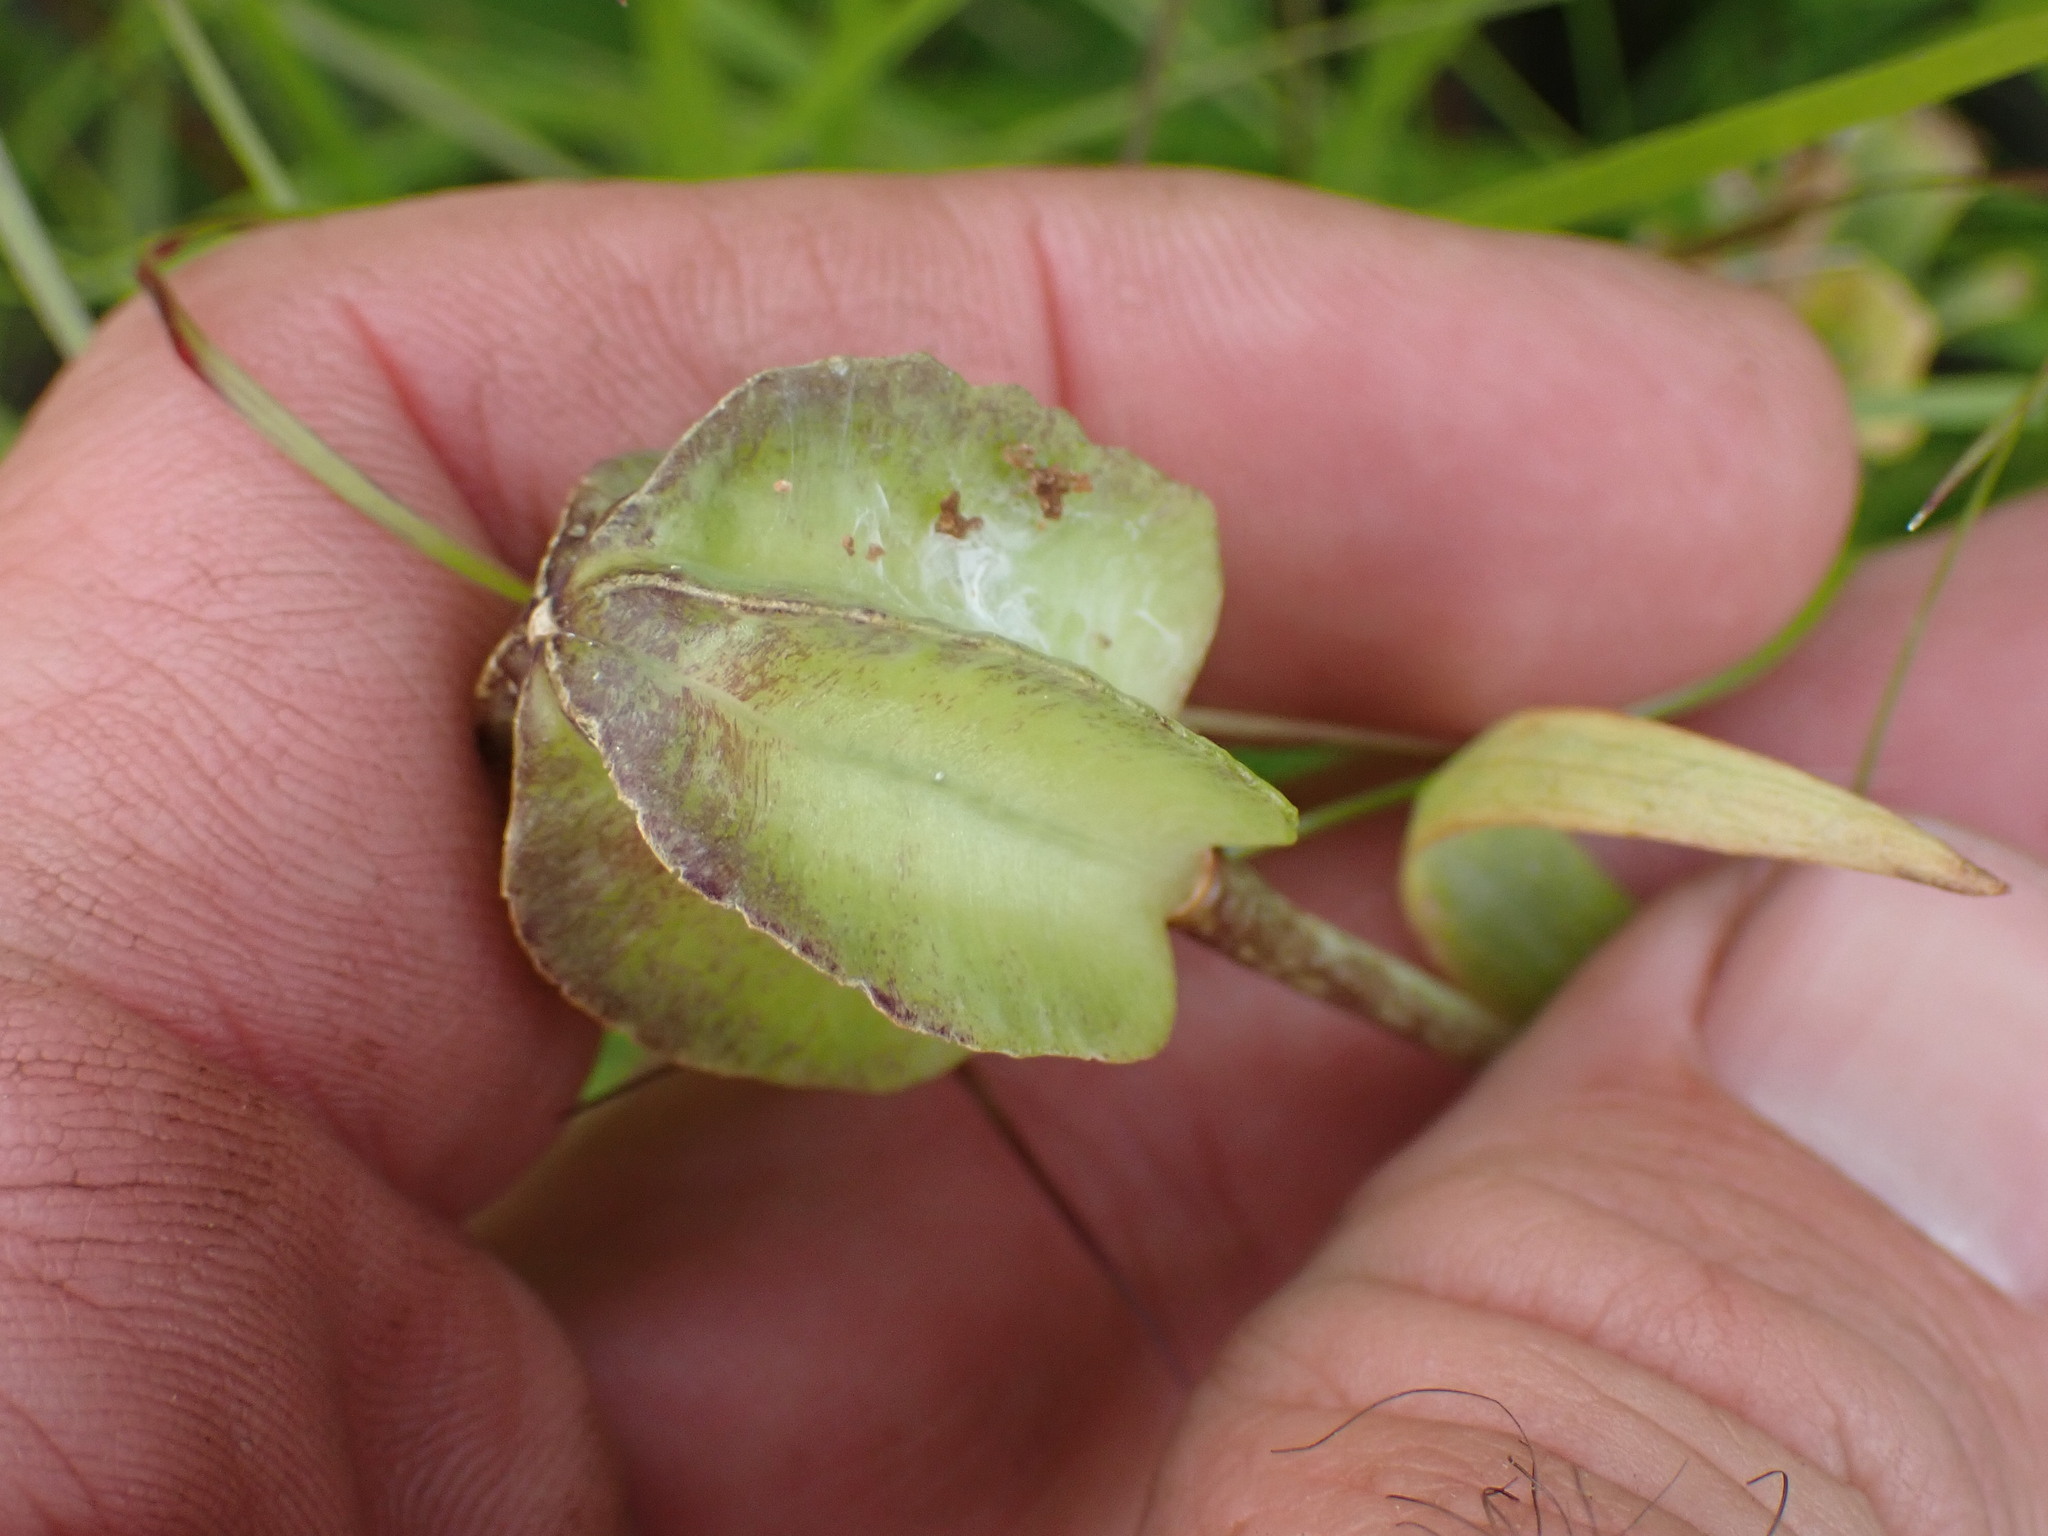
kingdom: Plantae
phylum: Tracheophyta
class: Liliopsida
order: Liliales
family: Liliaceae
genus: Fritillaria
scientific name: Fritillaria affinis
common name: Ojai fritillary
